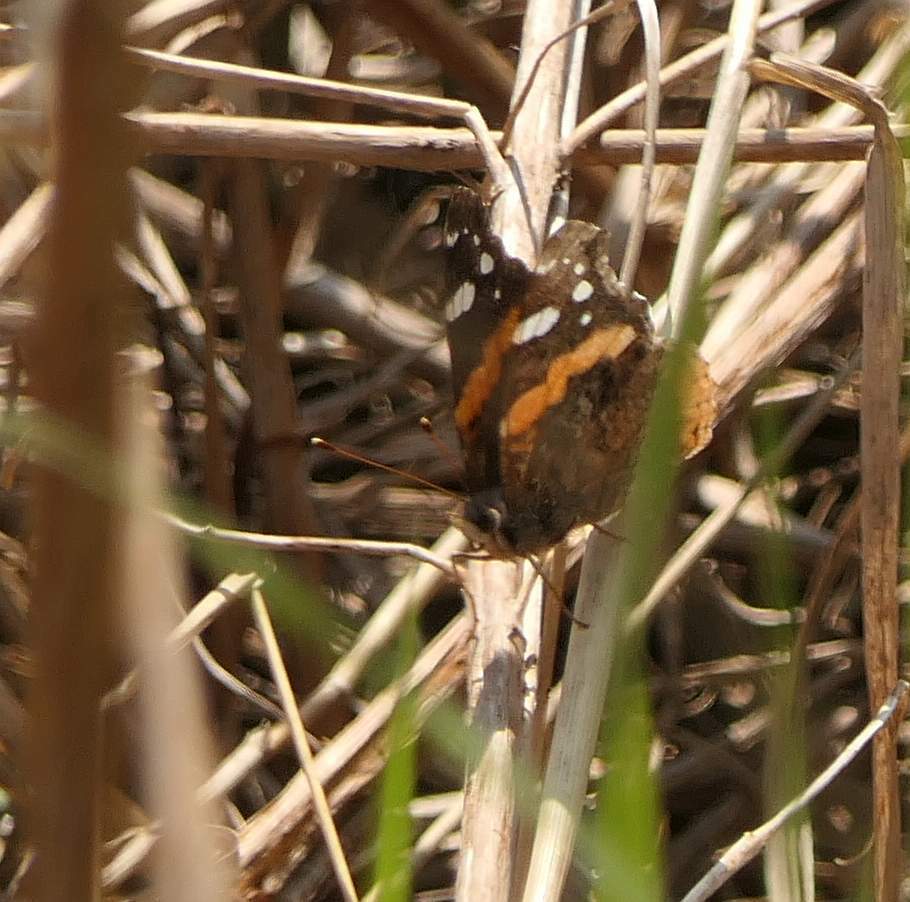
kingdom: Animalia
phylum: Arthropoda
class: Insecta
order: Lepidoptera
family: Nymphalidae
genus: Vanessa
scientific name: Vanessa atalanta
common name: Red admiral
